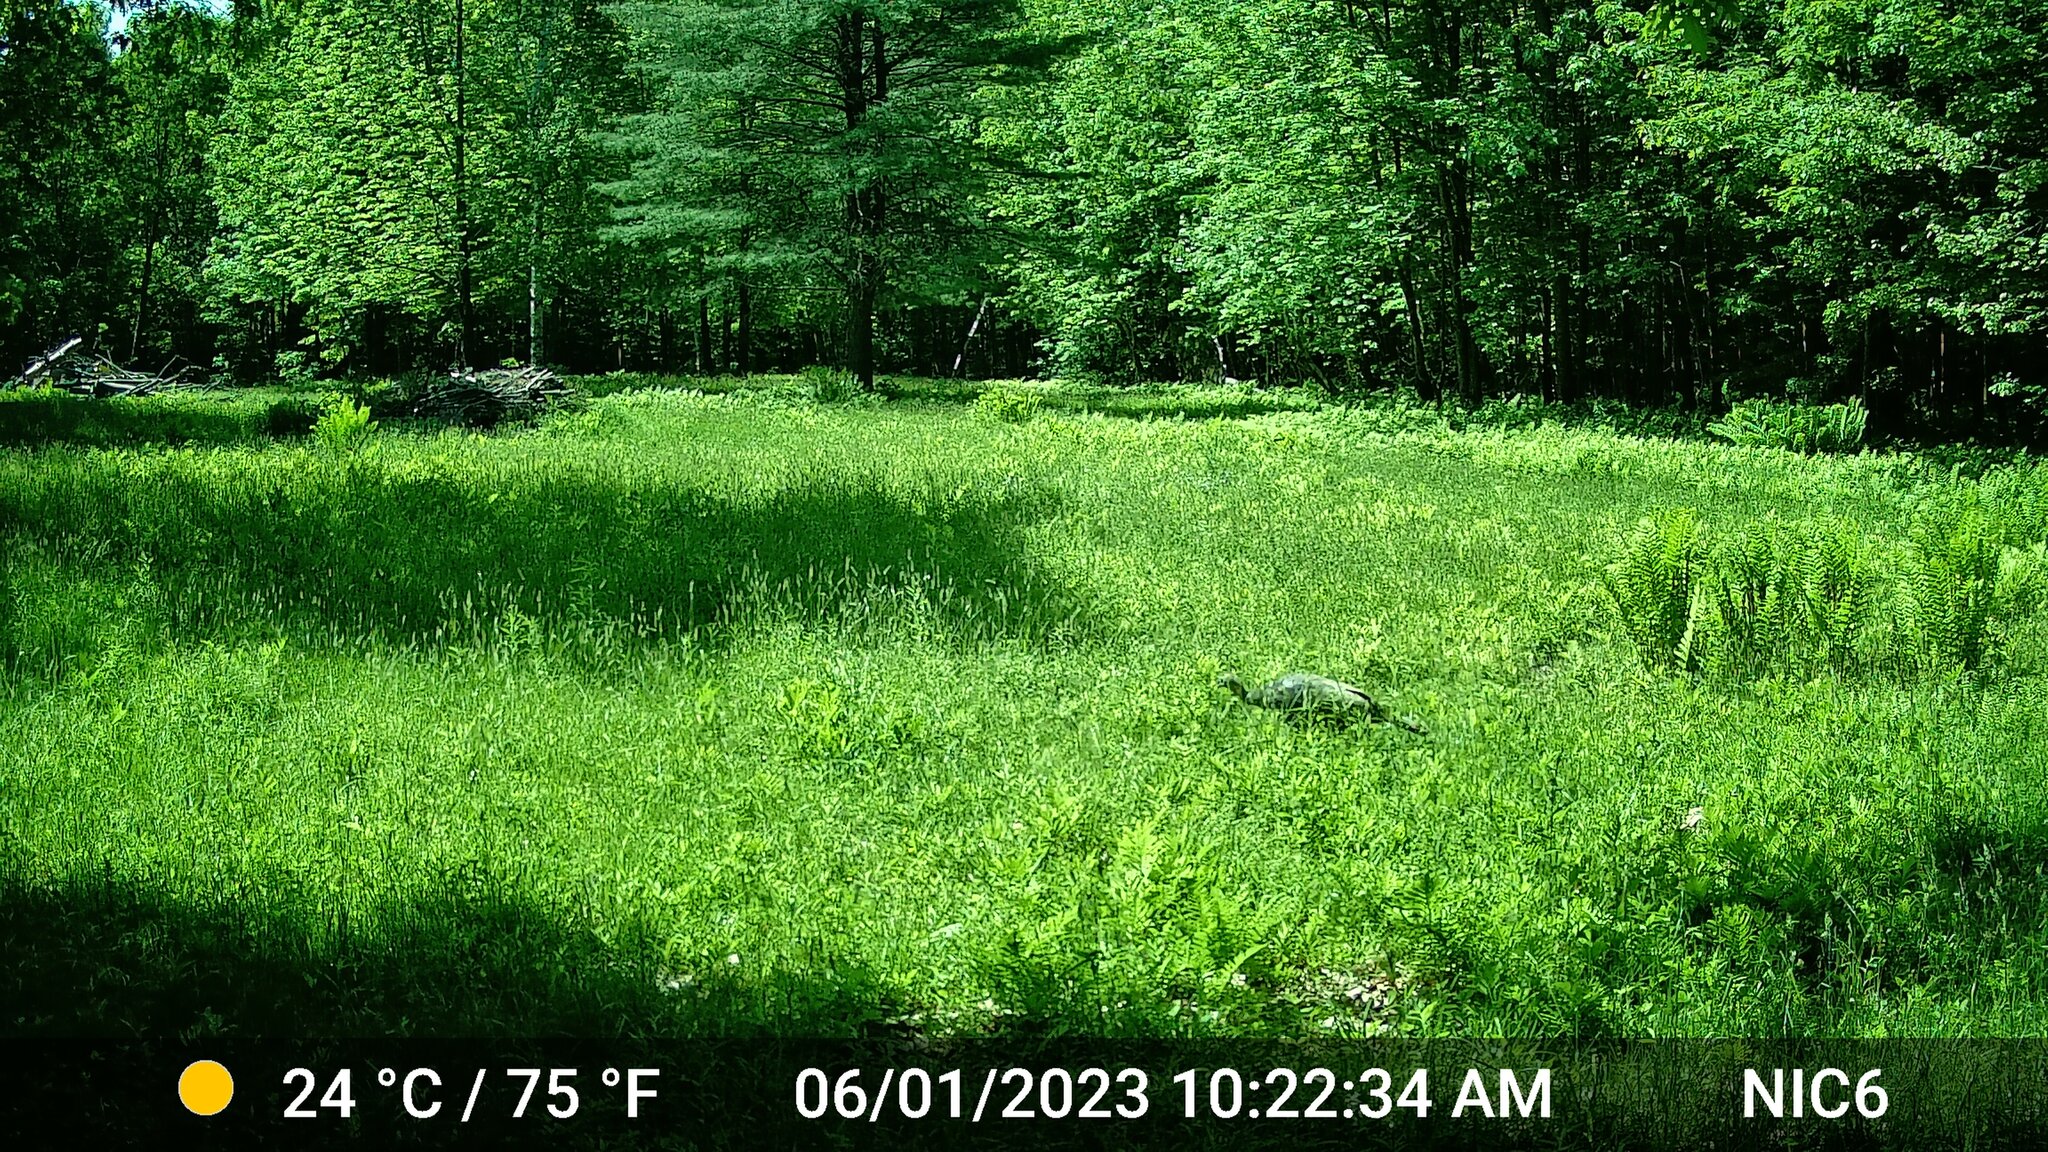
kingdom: Animalia
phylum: Chordata
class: Aves
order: Galliformes
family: Phasianidae
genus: Meleagris
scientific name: Meleagris gallopavo
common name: Wild turkey
